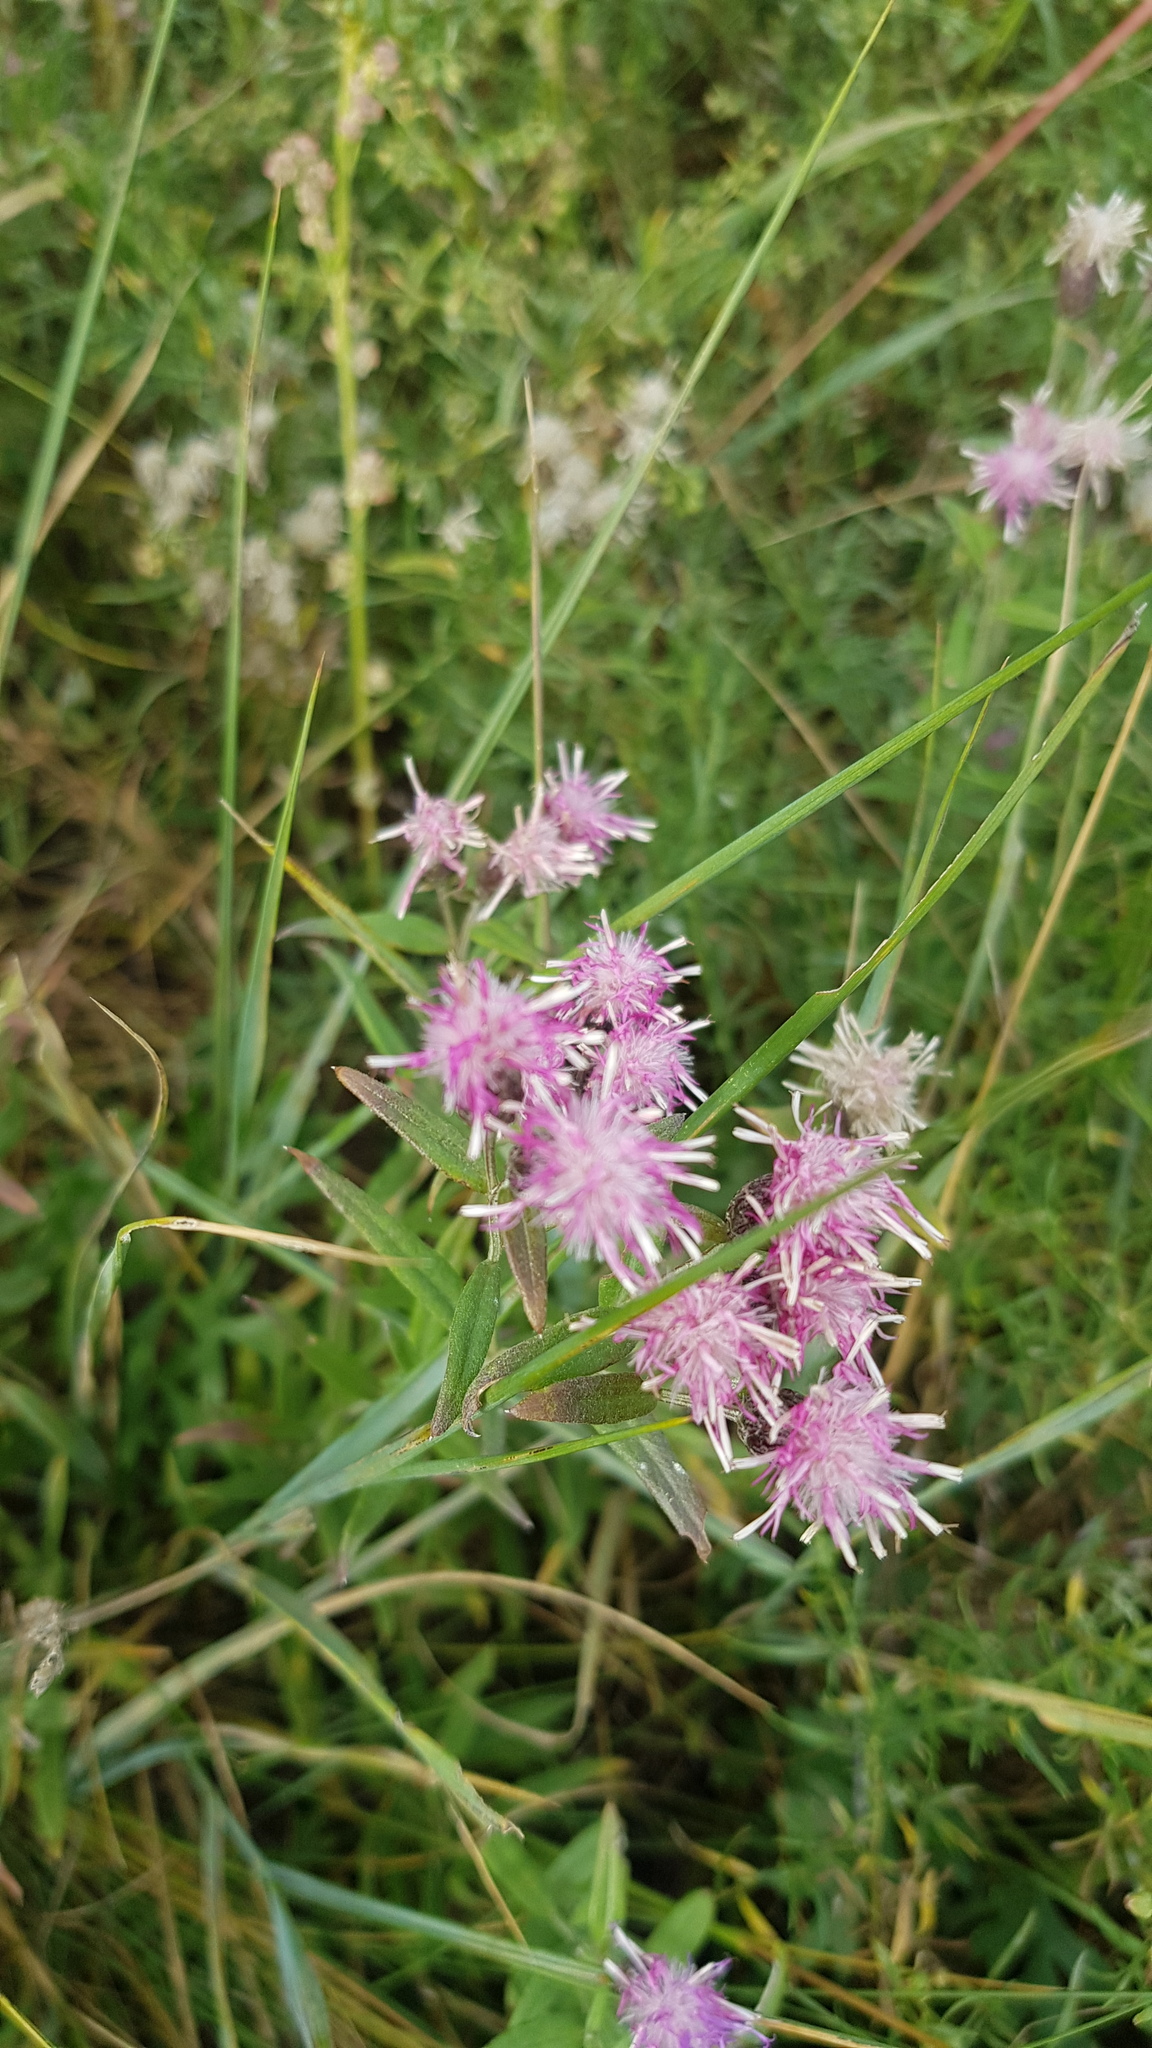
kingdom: Plantae
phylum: Tracheophyta
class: Magnoliopsida
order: Asterales
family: Asteraceae
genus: Saussurea
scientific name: Saussurea salicifolia
